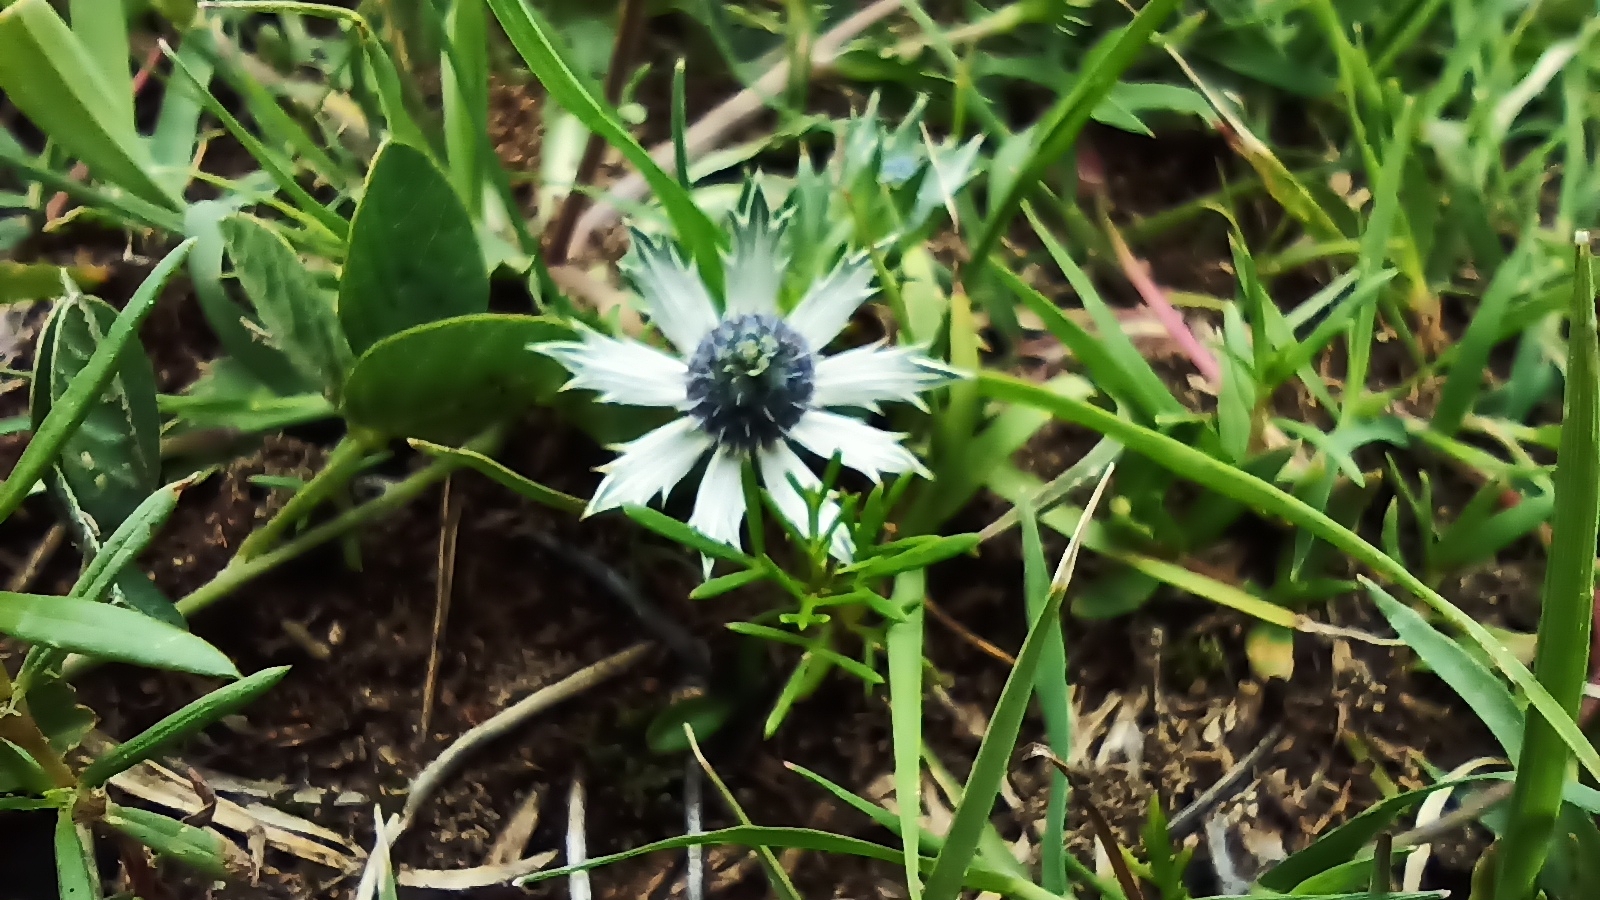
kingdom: Plantae
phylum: Tracheophyta
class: Magnoliopsida
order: Apiales
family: Apiaceae
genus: Eryngium
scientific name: Eryngium heterophyllum
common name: Mexican thistle
